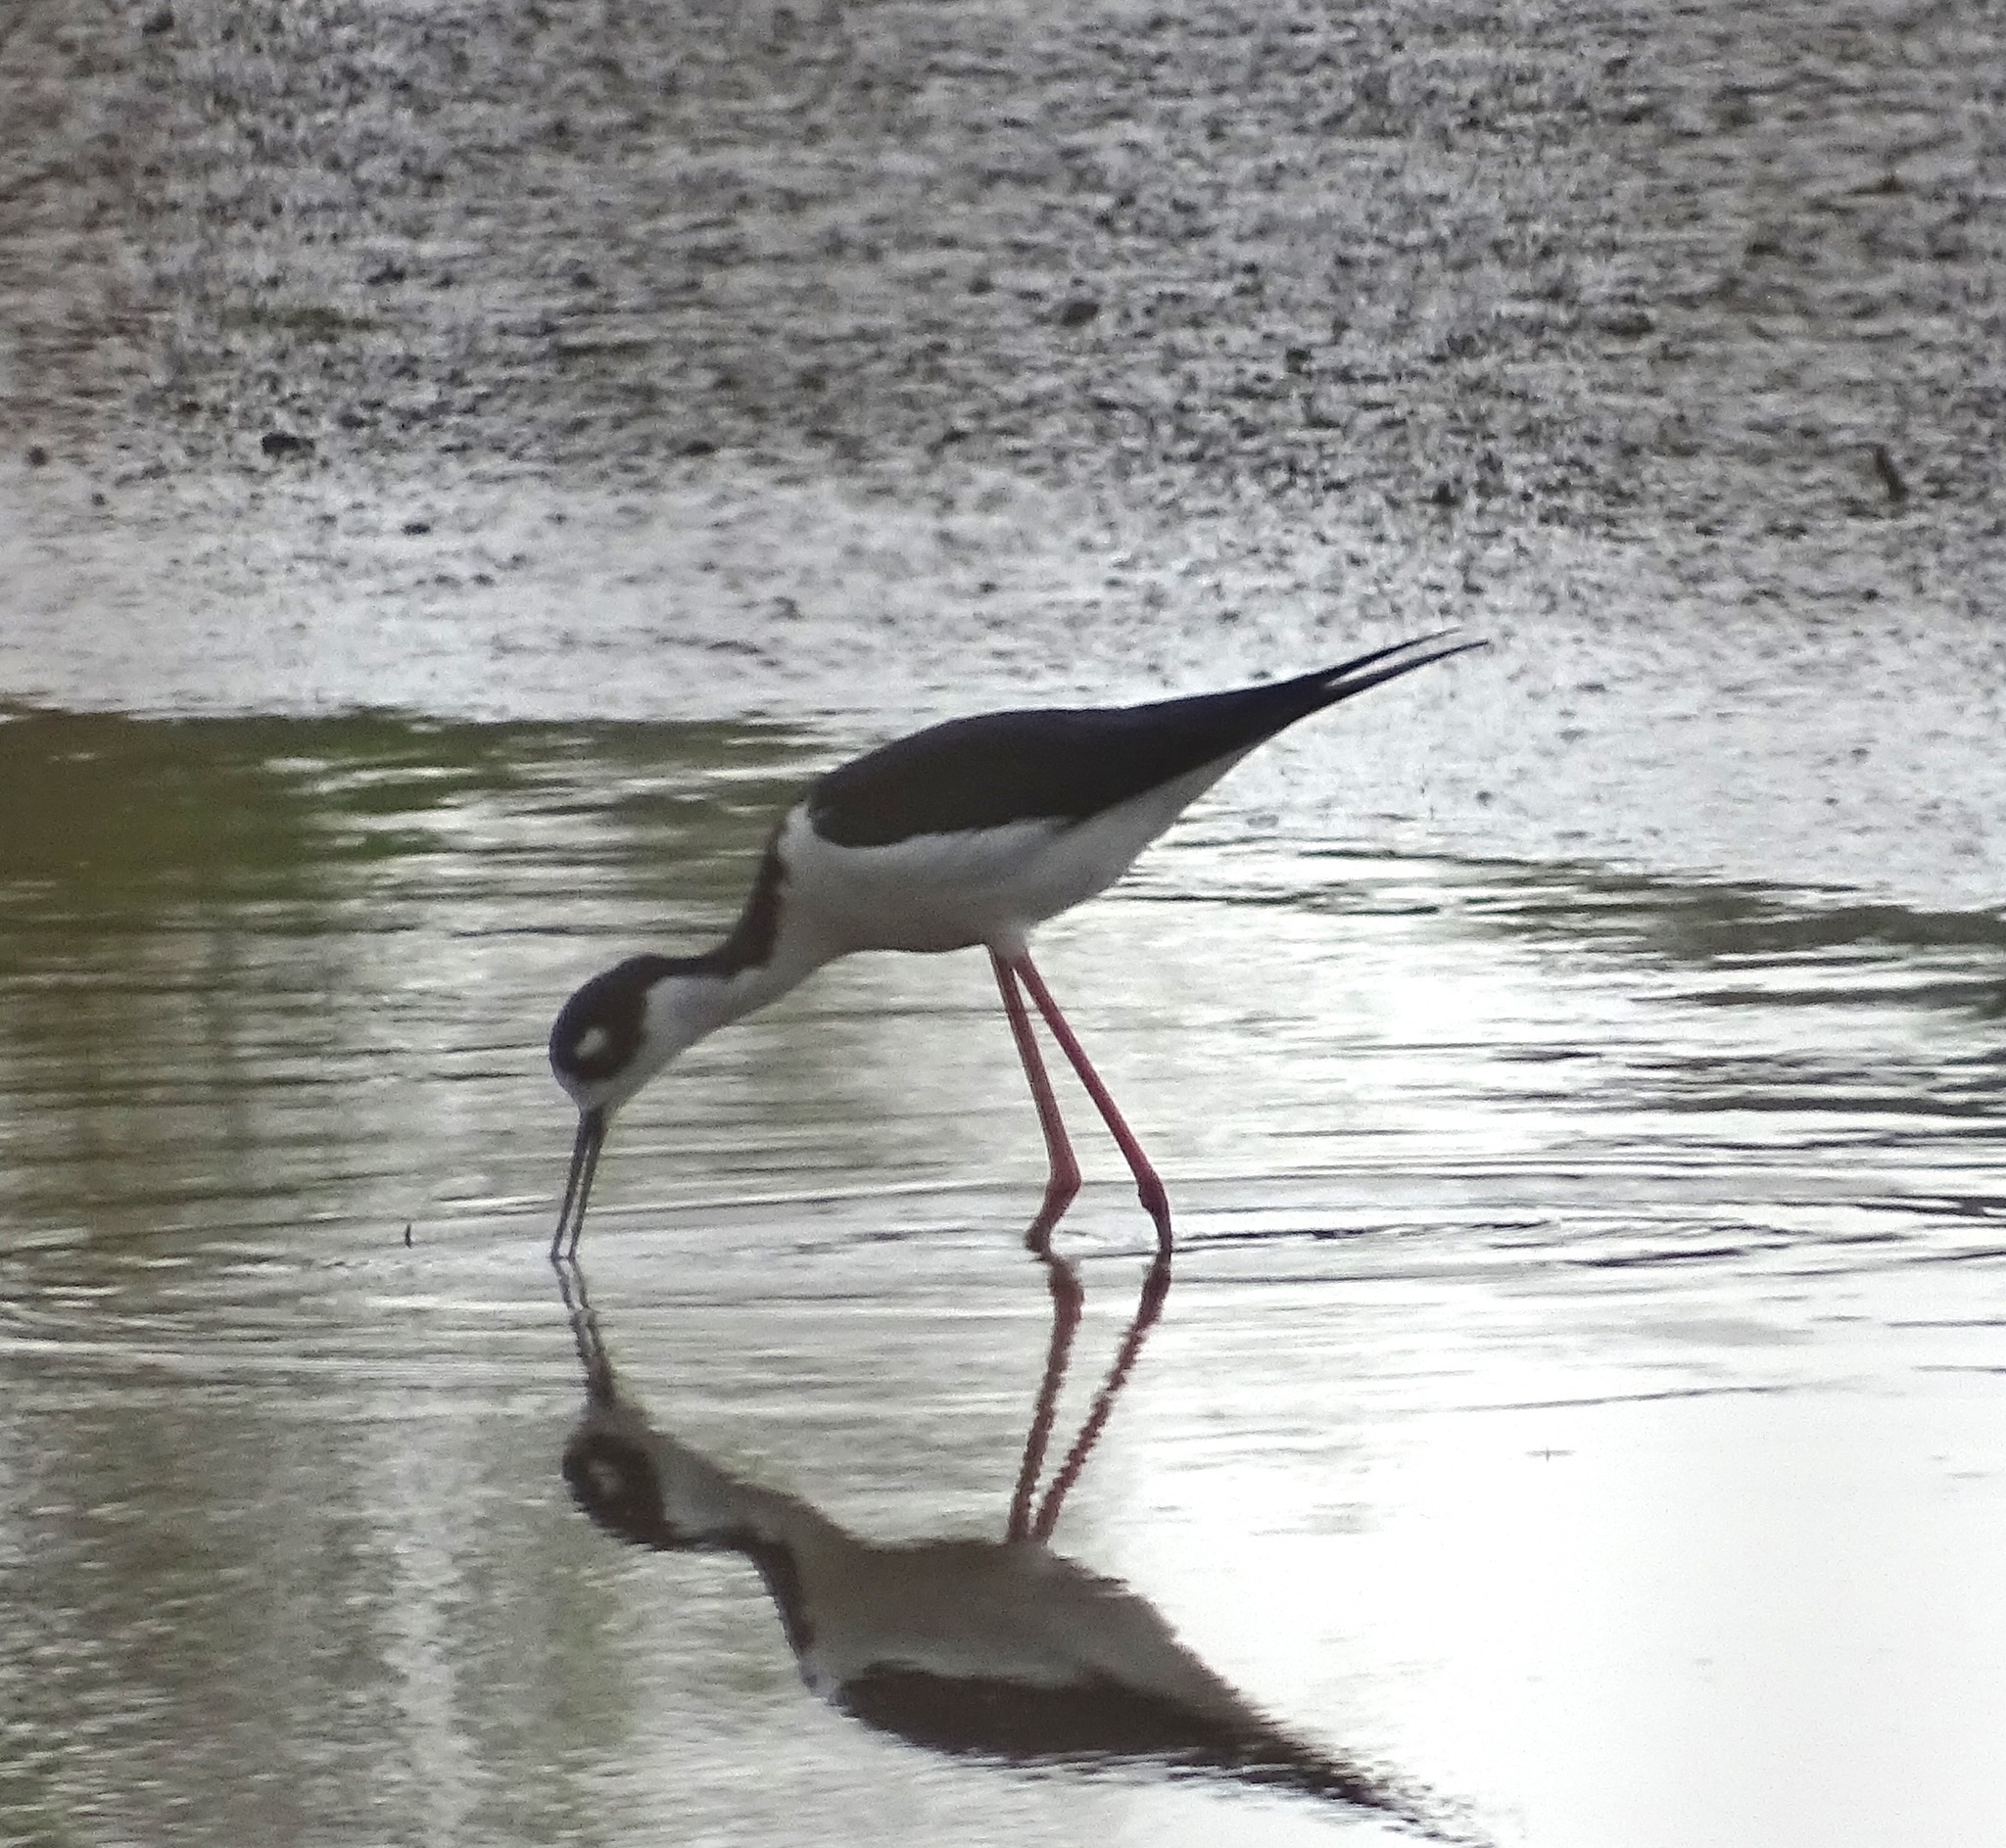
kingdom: Animalia
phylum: Chordata
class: Aves
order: Charadriiformes
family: Recurvirostridae
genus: Himantopus
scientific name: Himantopus mexicanus
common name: Black-necked stilt
